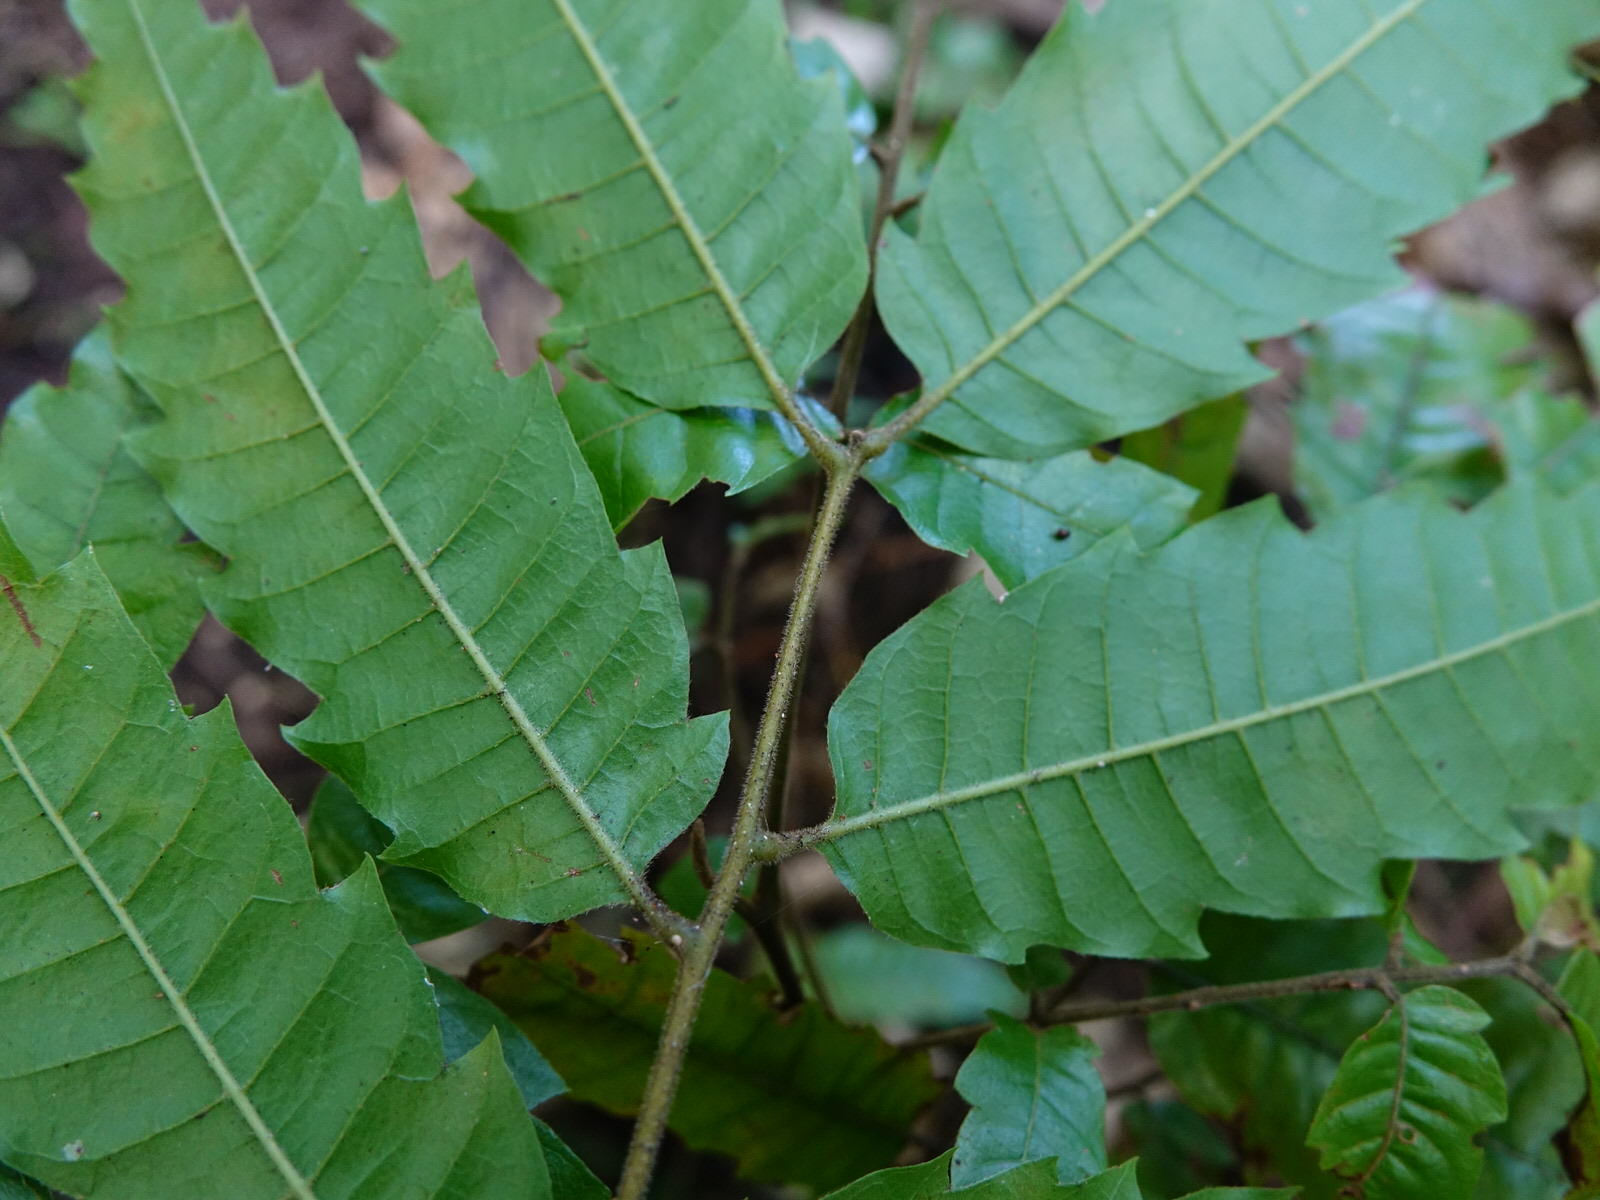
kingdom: Plantae
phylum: Tracheophyta
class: Magnoliopsida
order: Sapindales
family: Sapindaceae
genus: Alectryon
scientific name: Alectryon excelsus
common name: Three kings titoki
